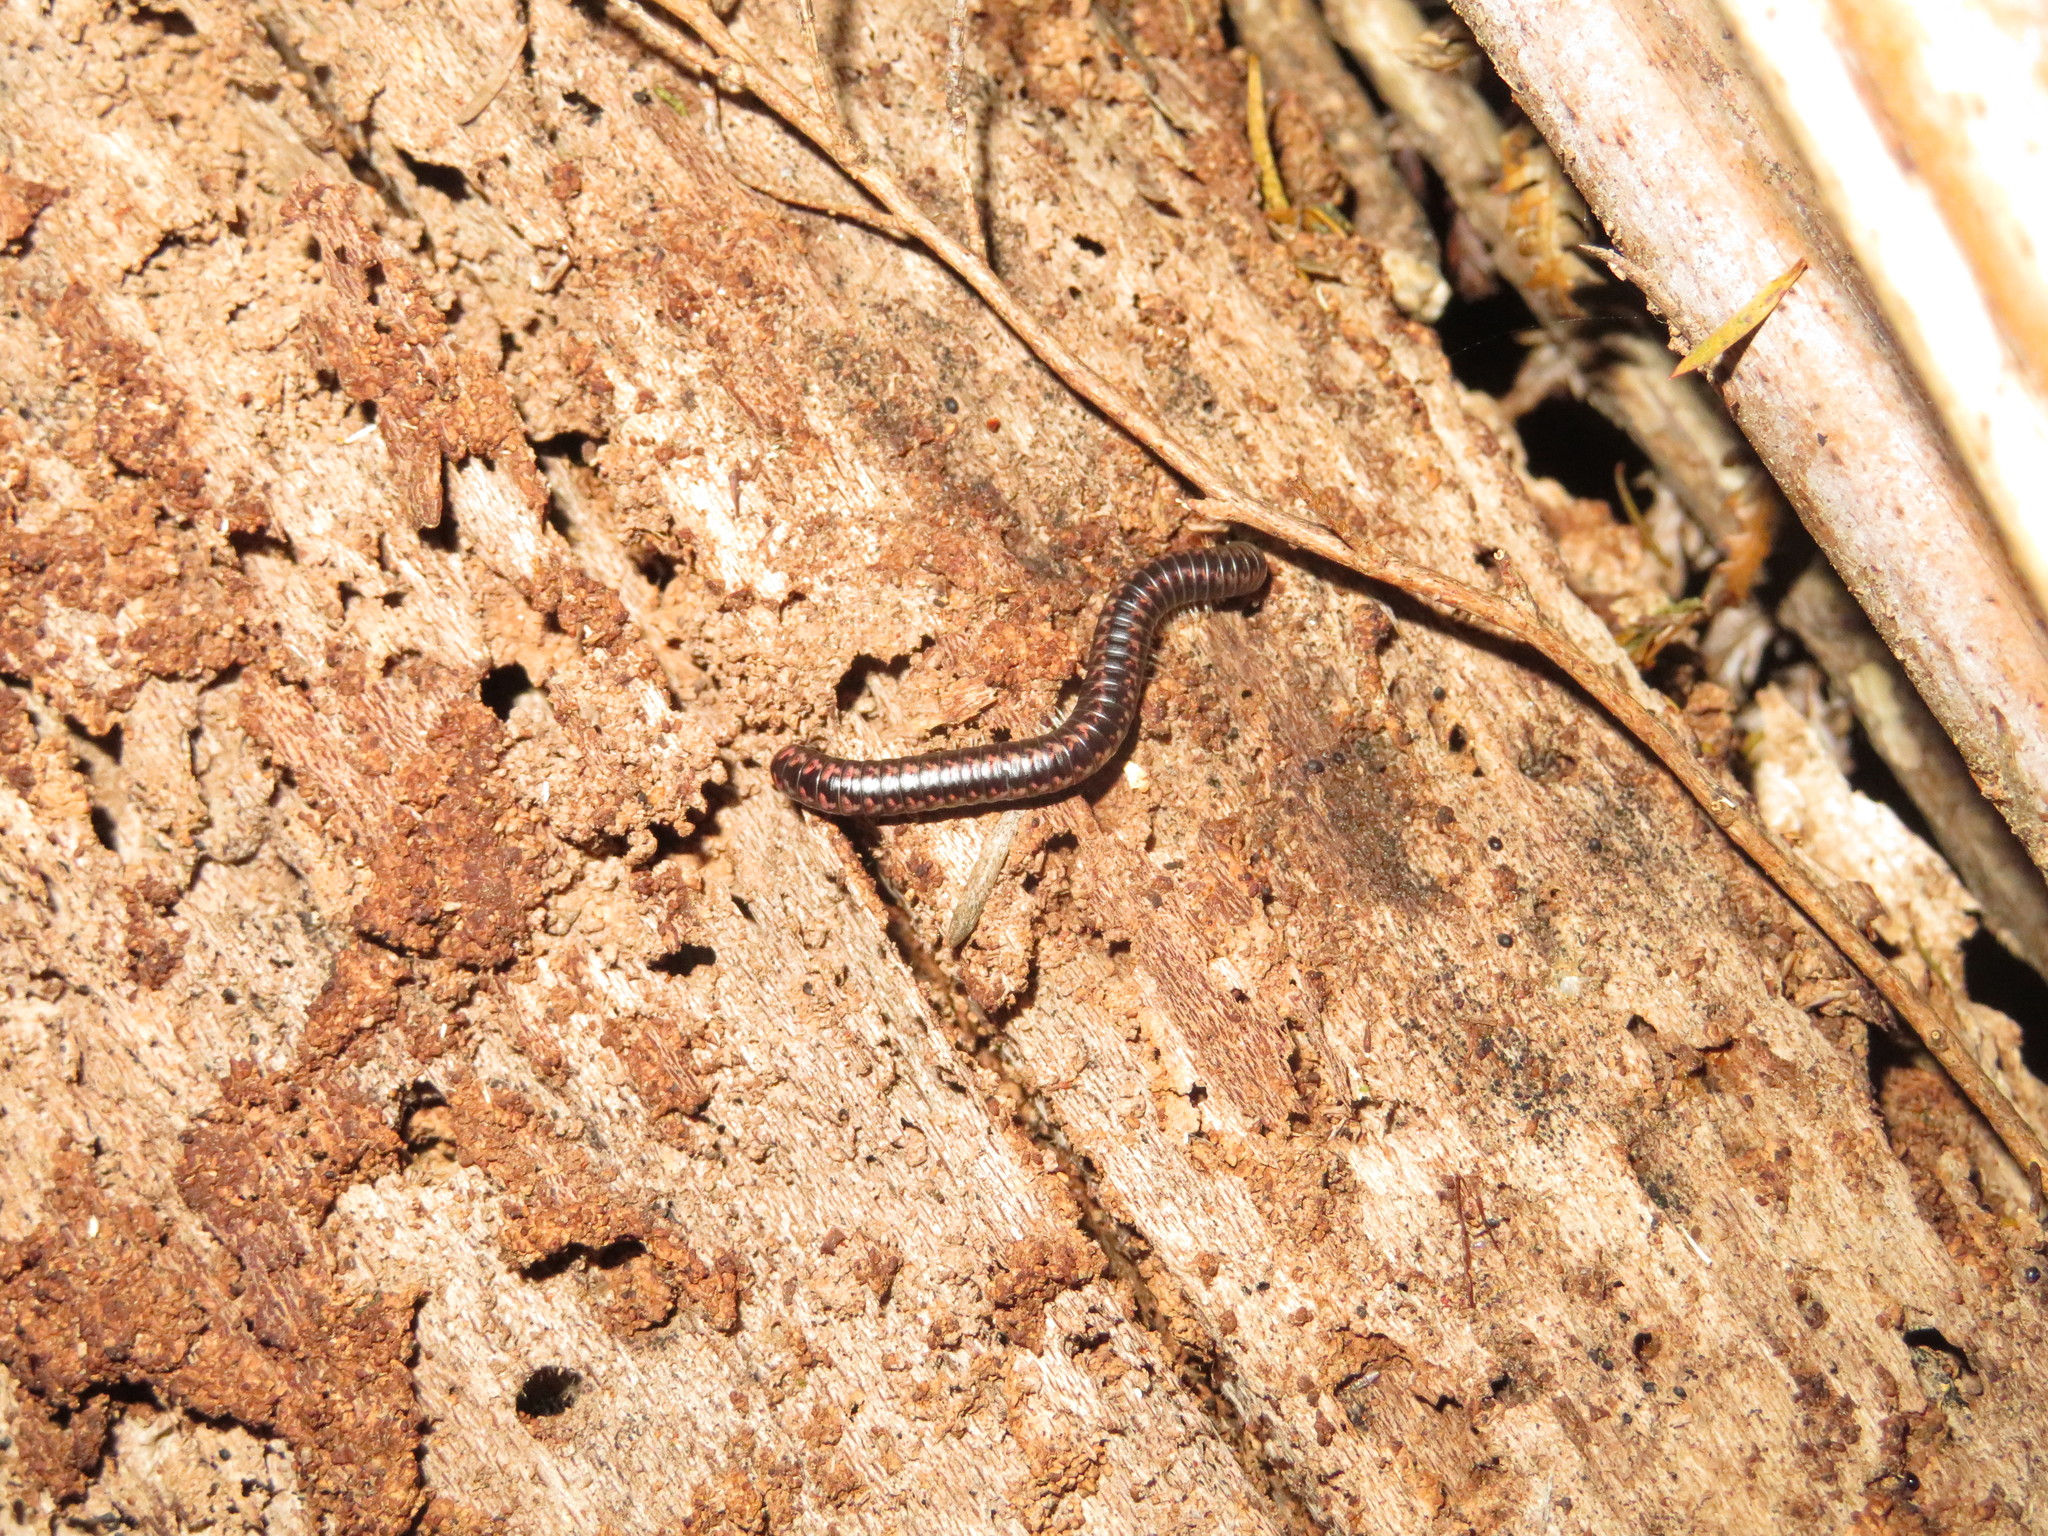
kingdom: Animalia
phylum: Arthropoda
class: Diplopoda
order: Spirobolida
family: Spirobolellidae
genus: Spirobolellus
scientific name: Spirobolellus antipodarum
